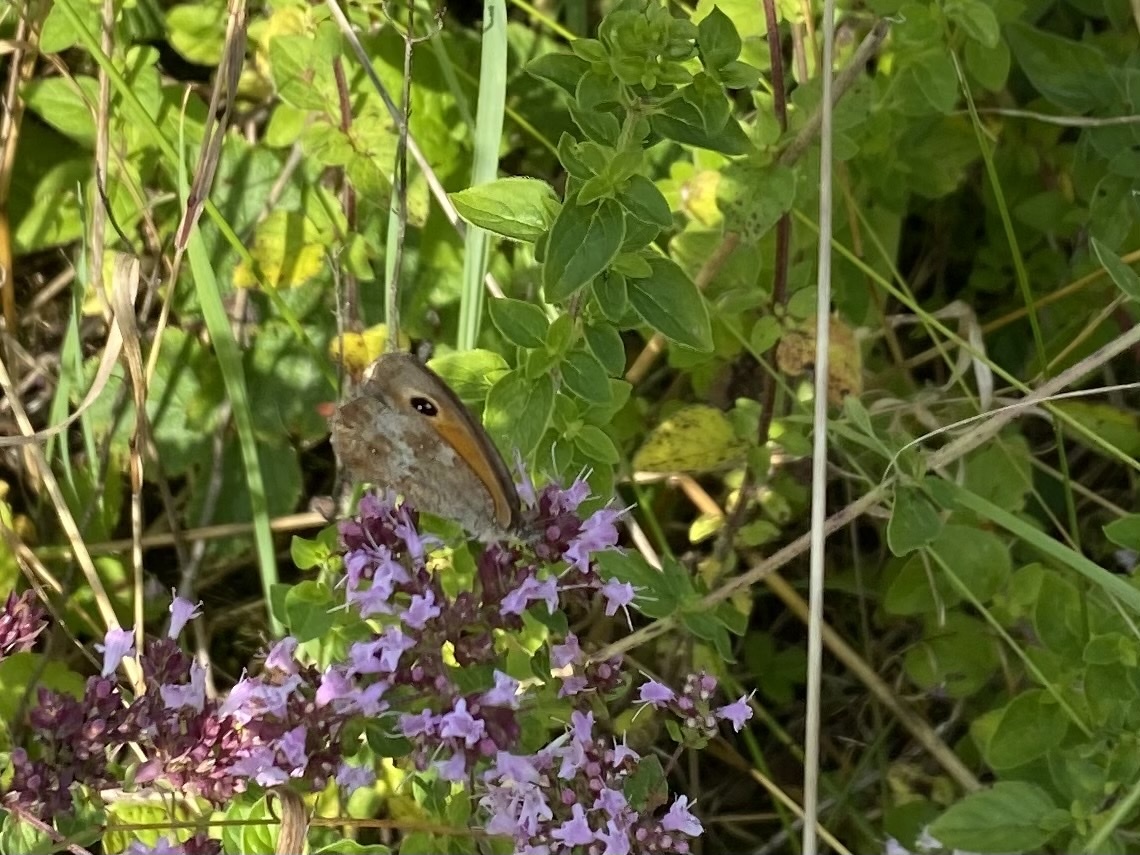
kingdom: Animalia
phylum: Arthropoda
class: Insecta
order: Lepidoptera
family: Nymphalidae
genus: Pyronia
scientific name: Pyronia tithonus
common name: Gatekeeper
